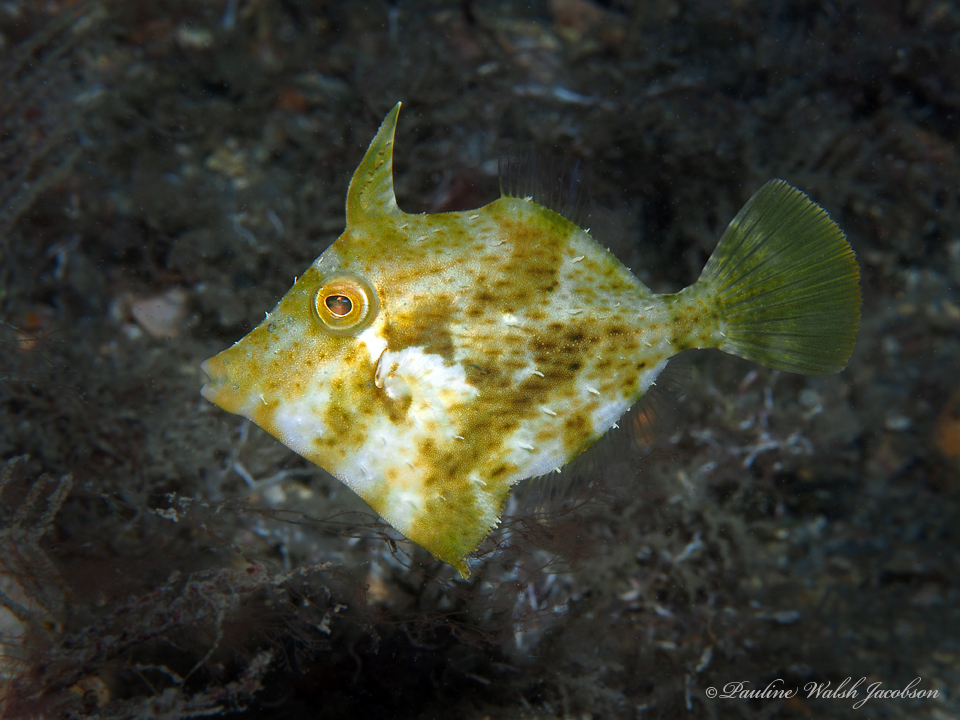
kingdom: Animalia
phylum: Chordata
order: Tetraodontiformes
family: Monacanthidae
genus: Monacanthus
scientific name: Monacanthus ciliatus
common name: Fringed filefish
